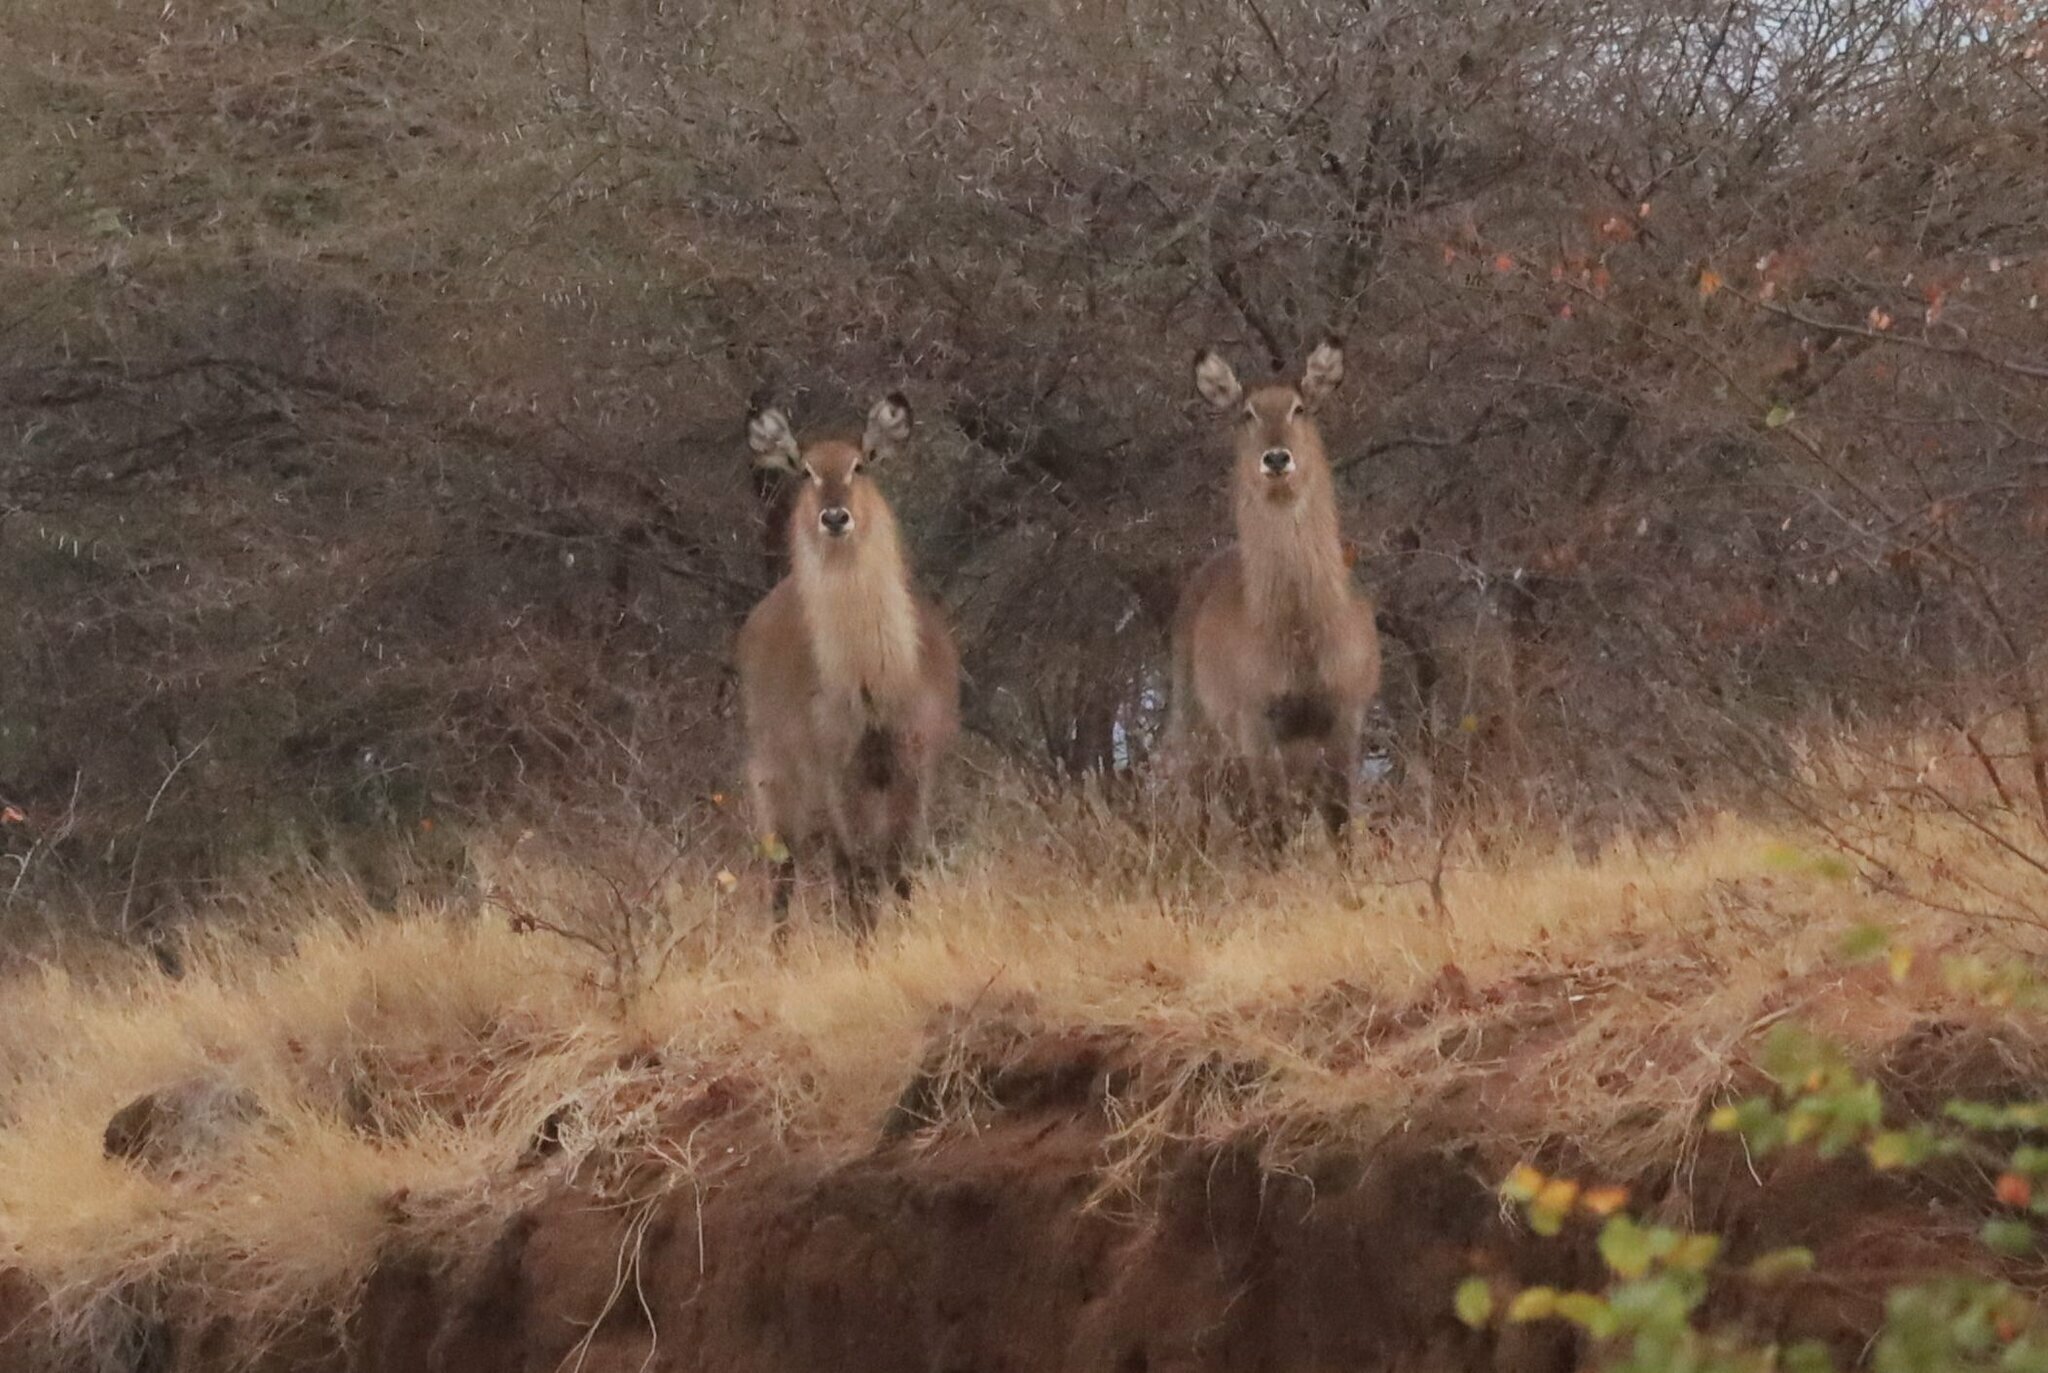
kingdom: Animalia
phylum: Chordata
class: Mammalia
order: Artiodactyla
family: Bovidae
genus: Kobus
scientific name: Kobus ellipsiprymnus
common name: Waterbuck
